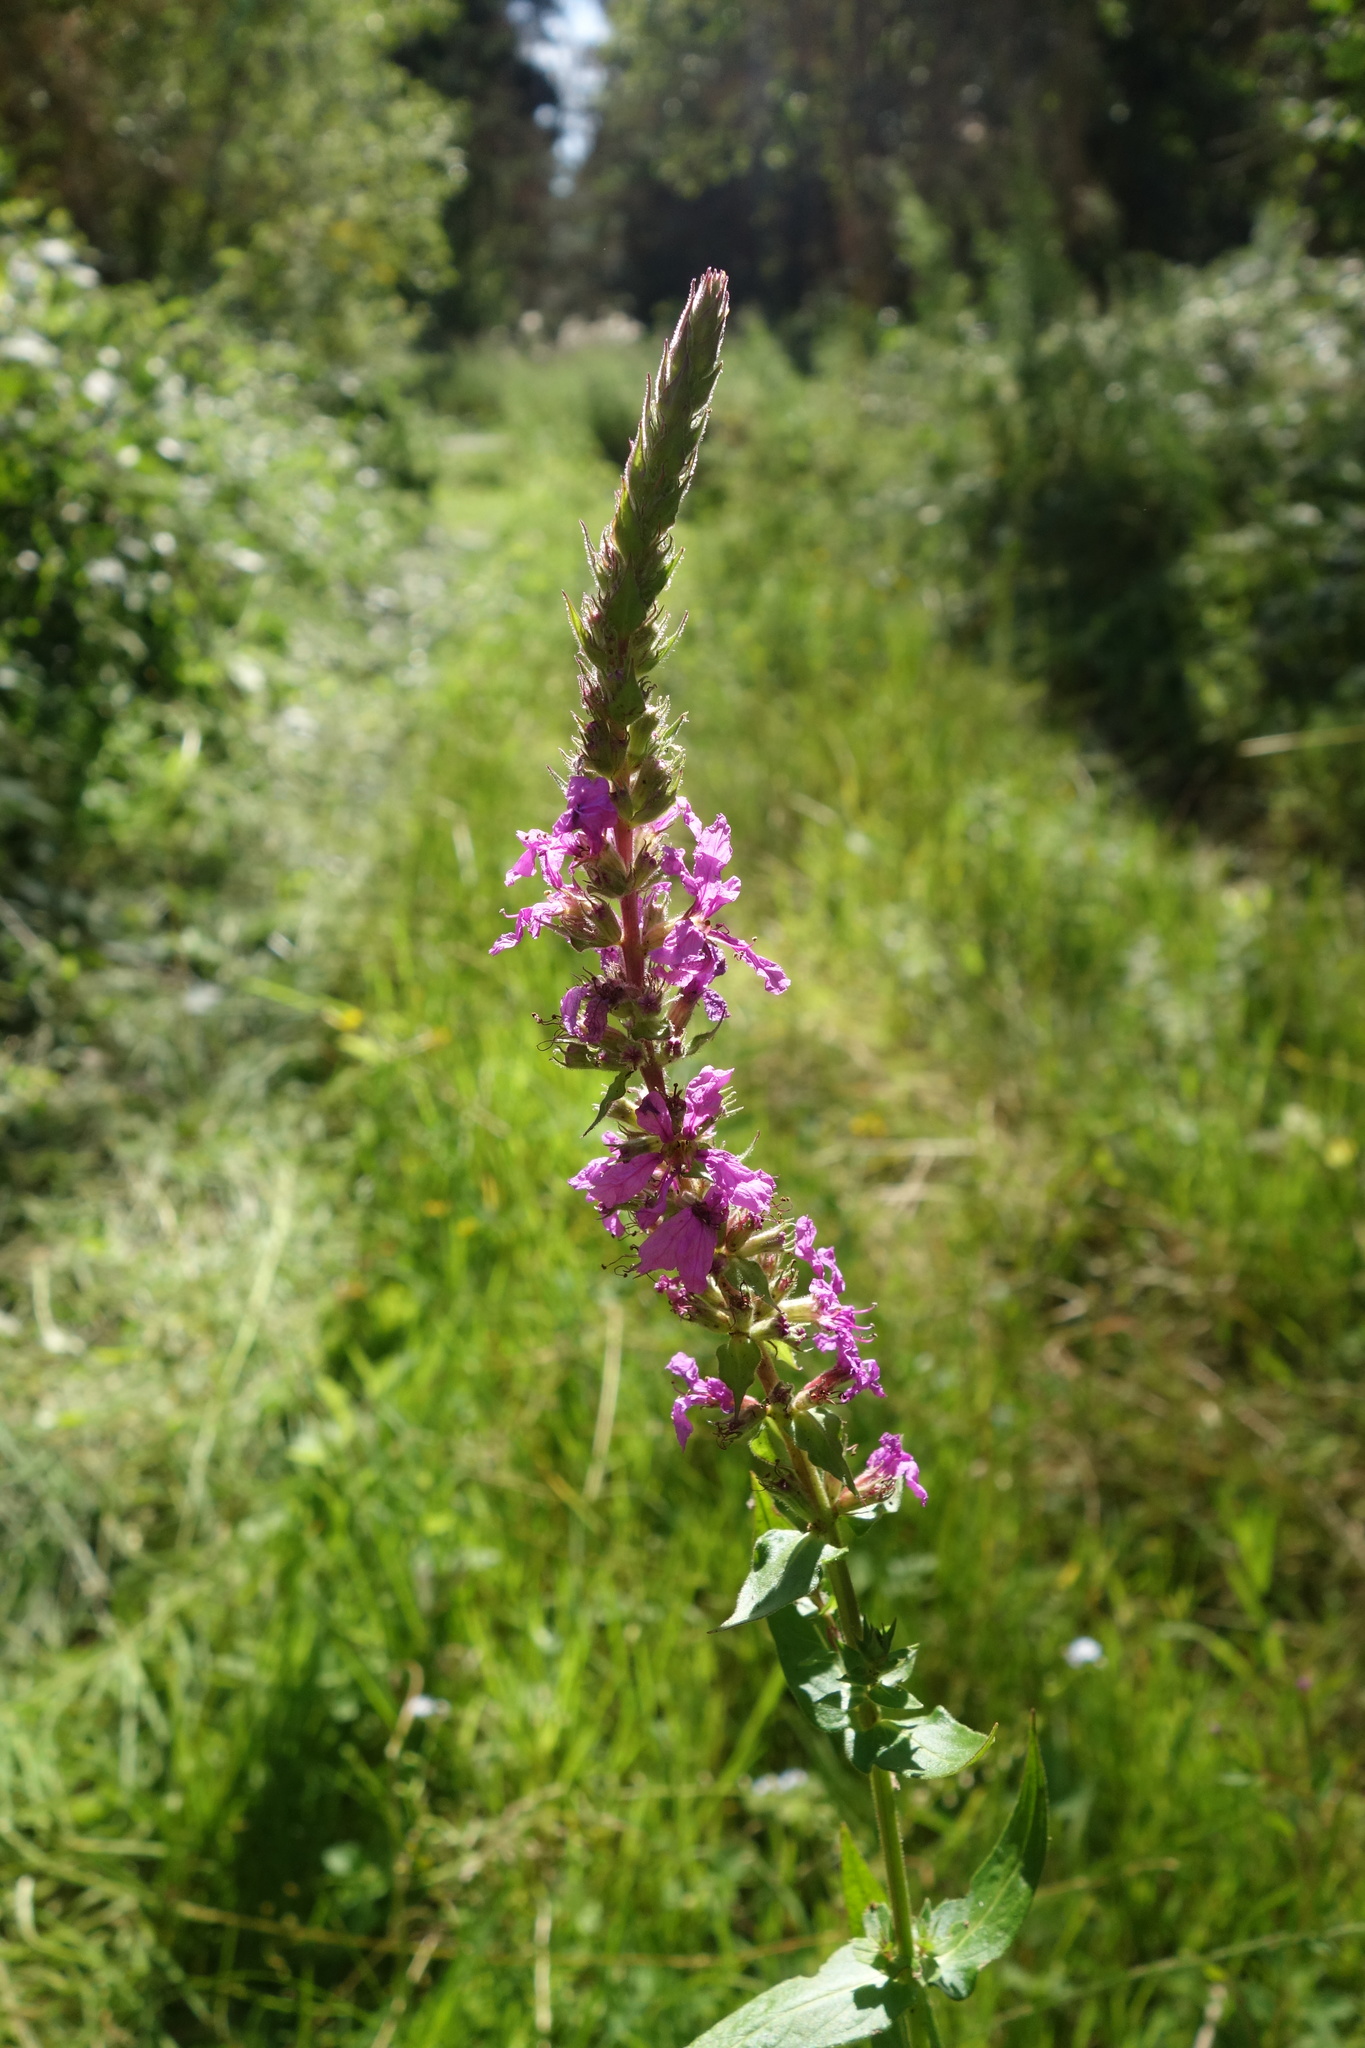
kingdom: Plantae
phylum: Tracheophyta
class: Magnoliopsida
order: Myrtales
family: Lythraceae
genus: Lythrum
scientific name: Lythrum salicaria
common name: Purple loosestrife
